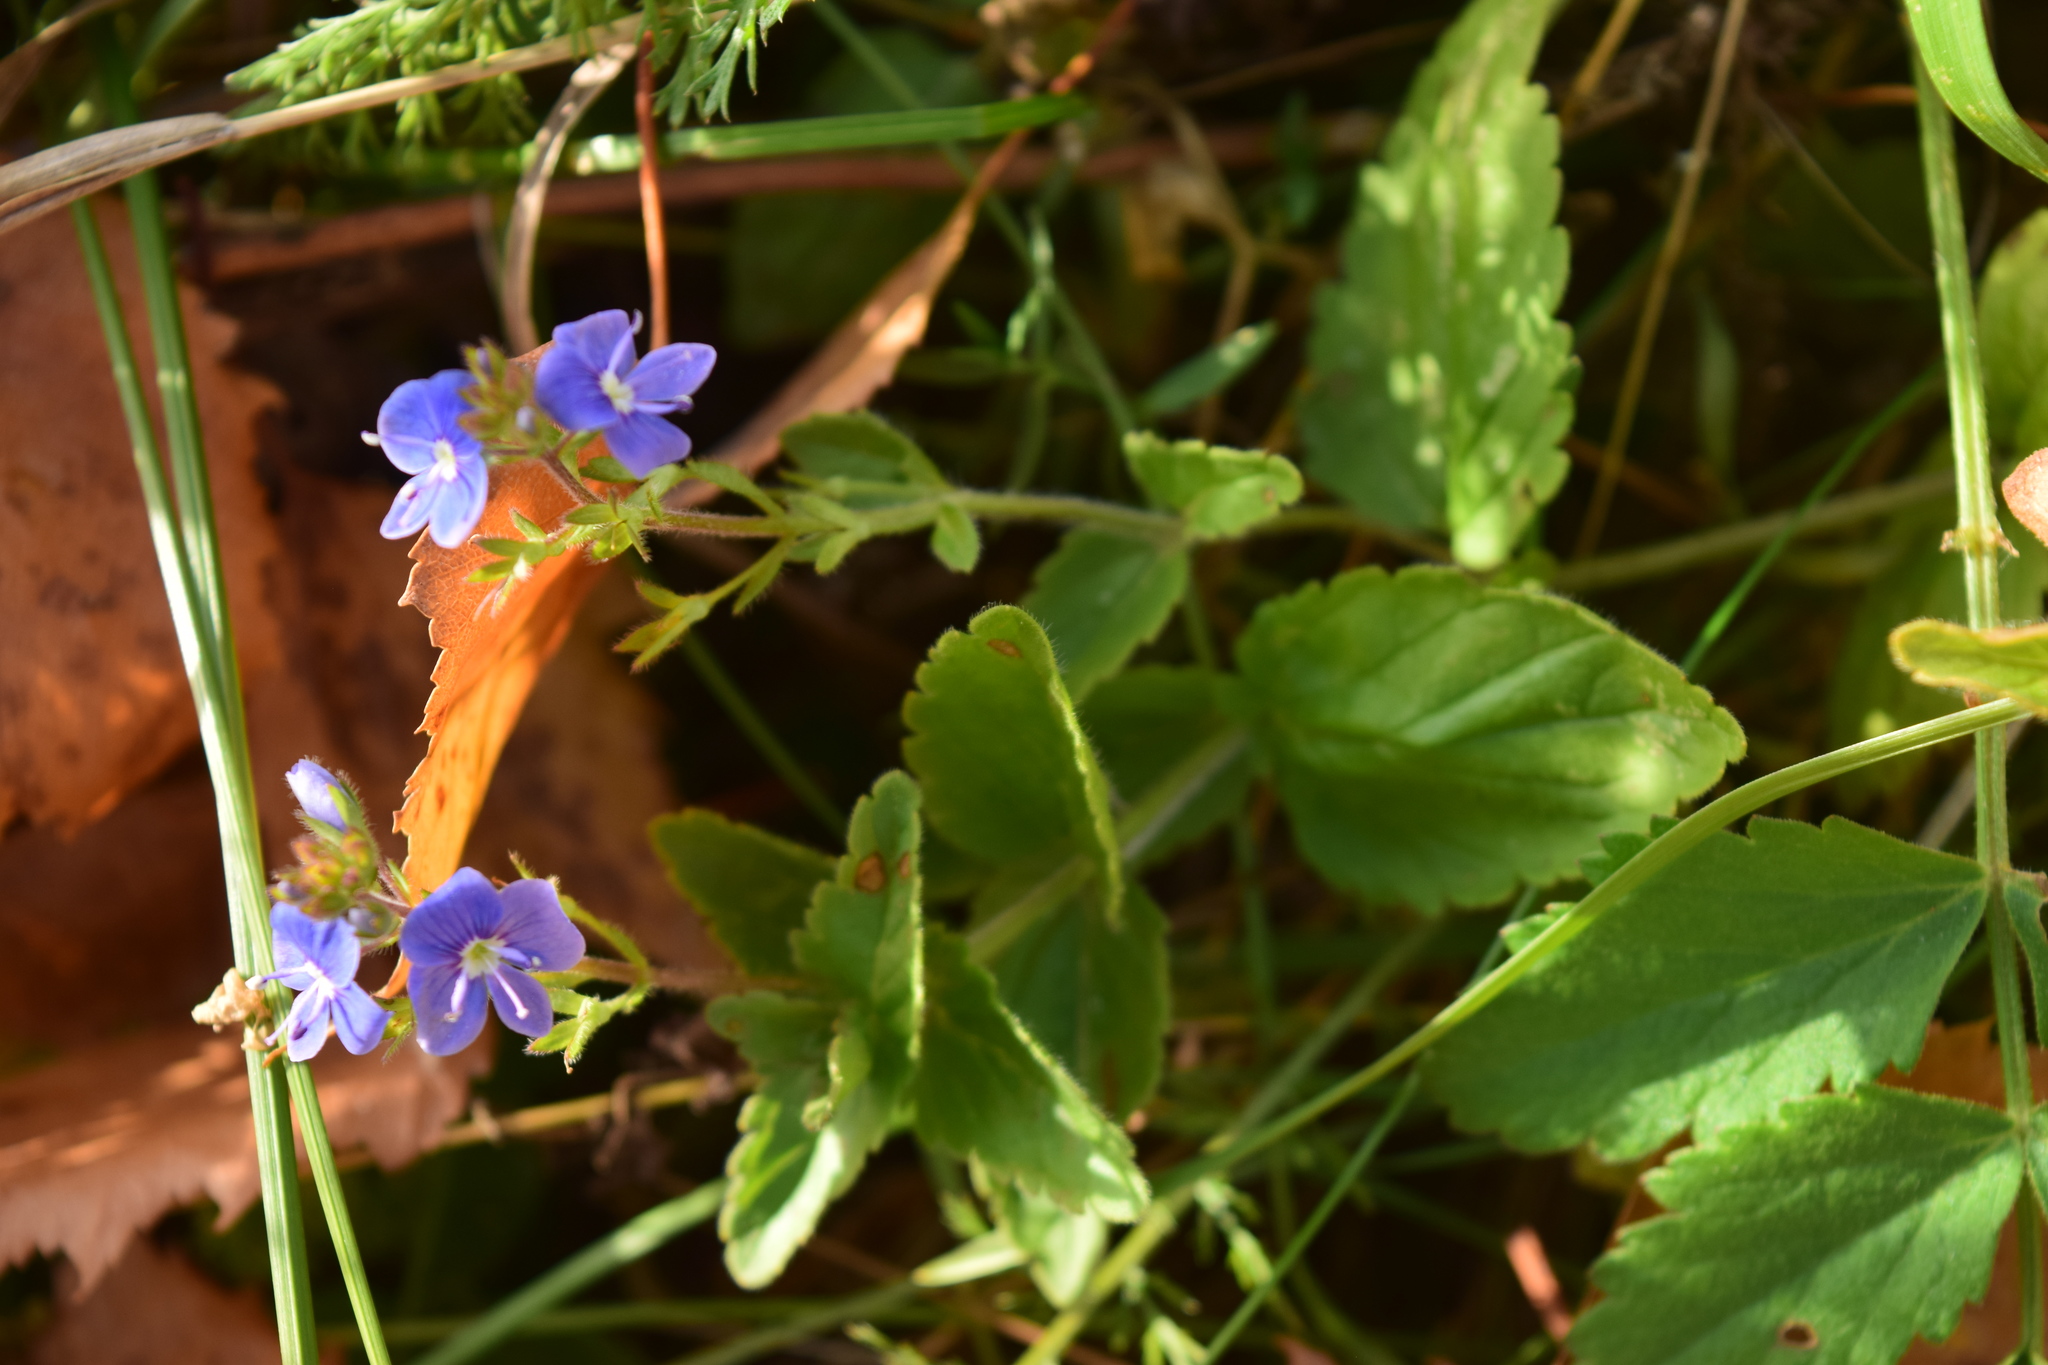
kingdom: Plantae
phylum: Tracheophyta
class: Magnoliopsida
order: Lamiales
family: Plantaginaceae
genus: Veronica
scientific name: Veronica chamaedrys
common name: Germander speedwell
